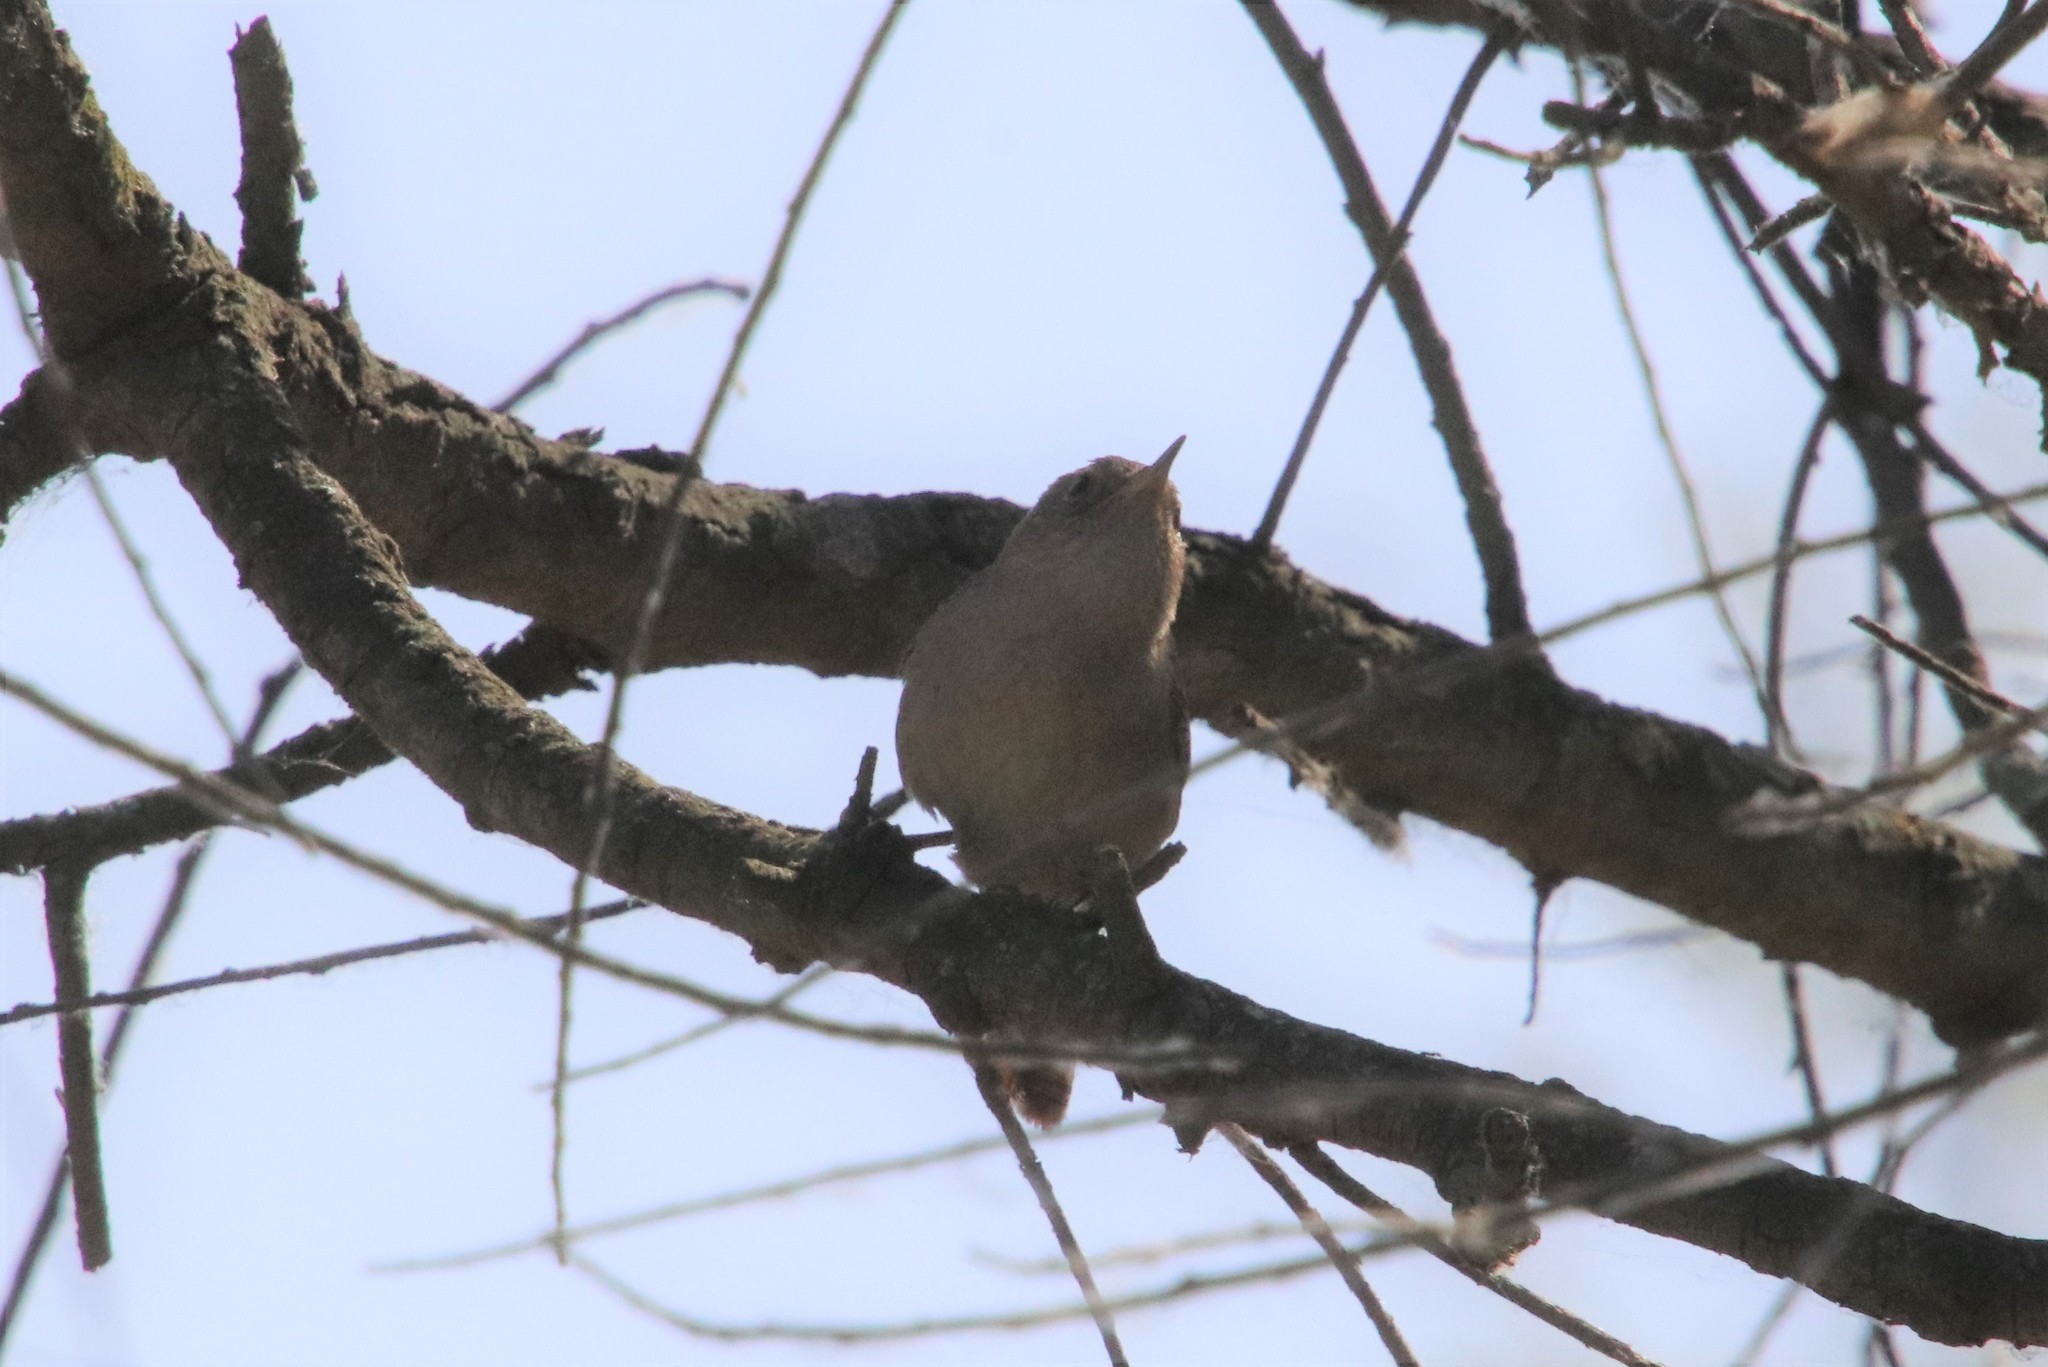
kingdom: Animalia
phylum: Chordata
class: Aves
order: Passeriformes
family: Troglodytidae
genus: Troglodytes
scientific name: Troglodytes aedon
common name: House wren
